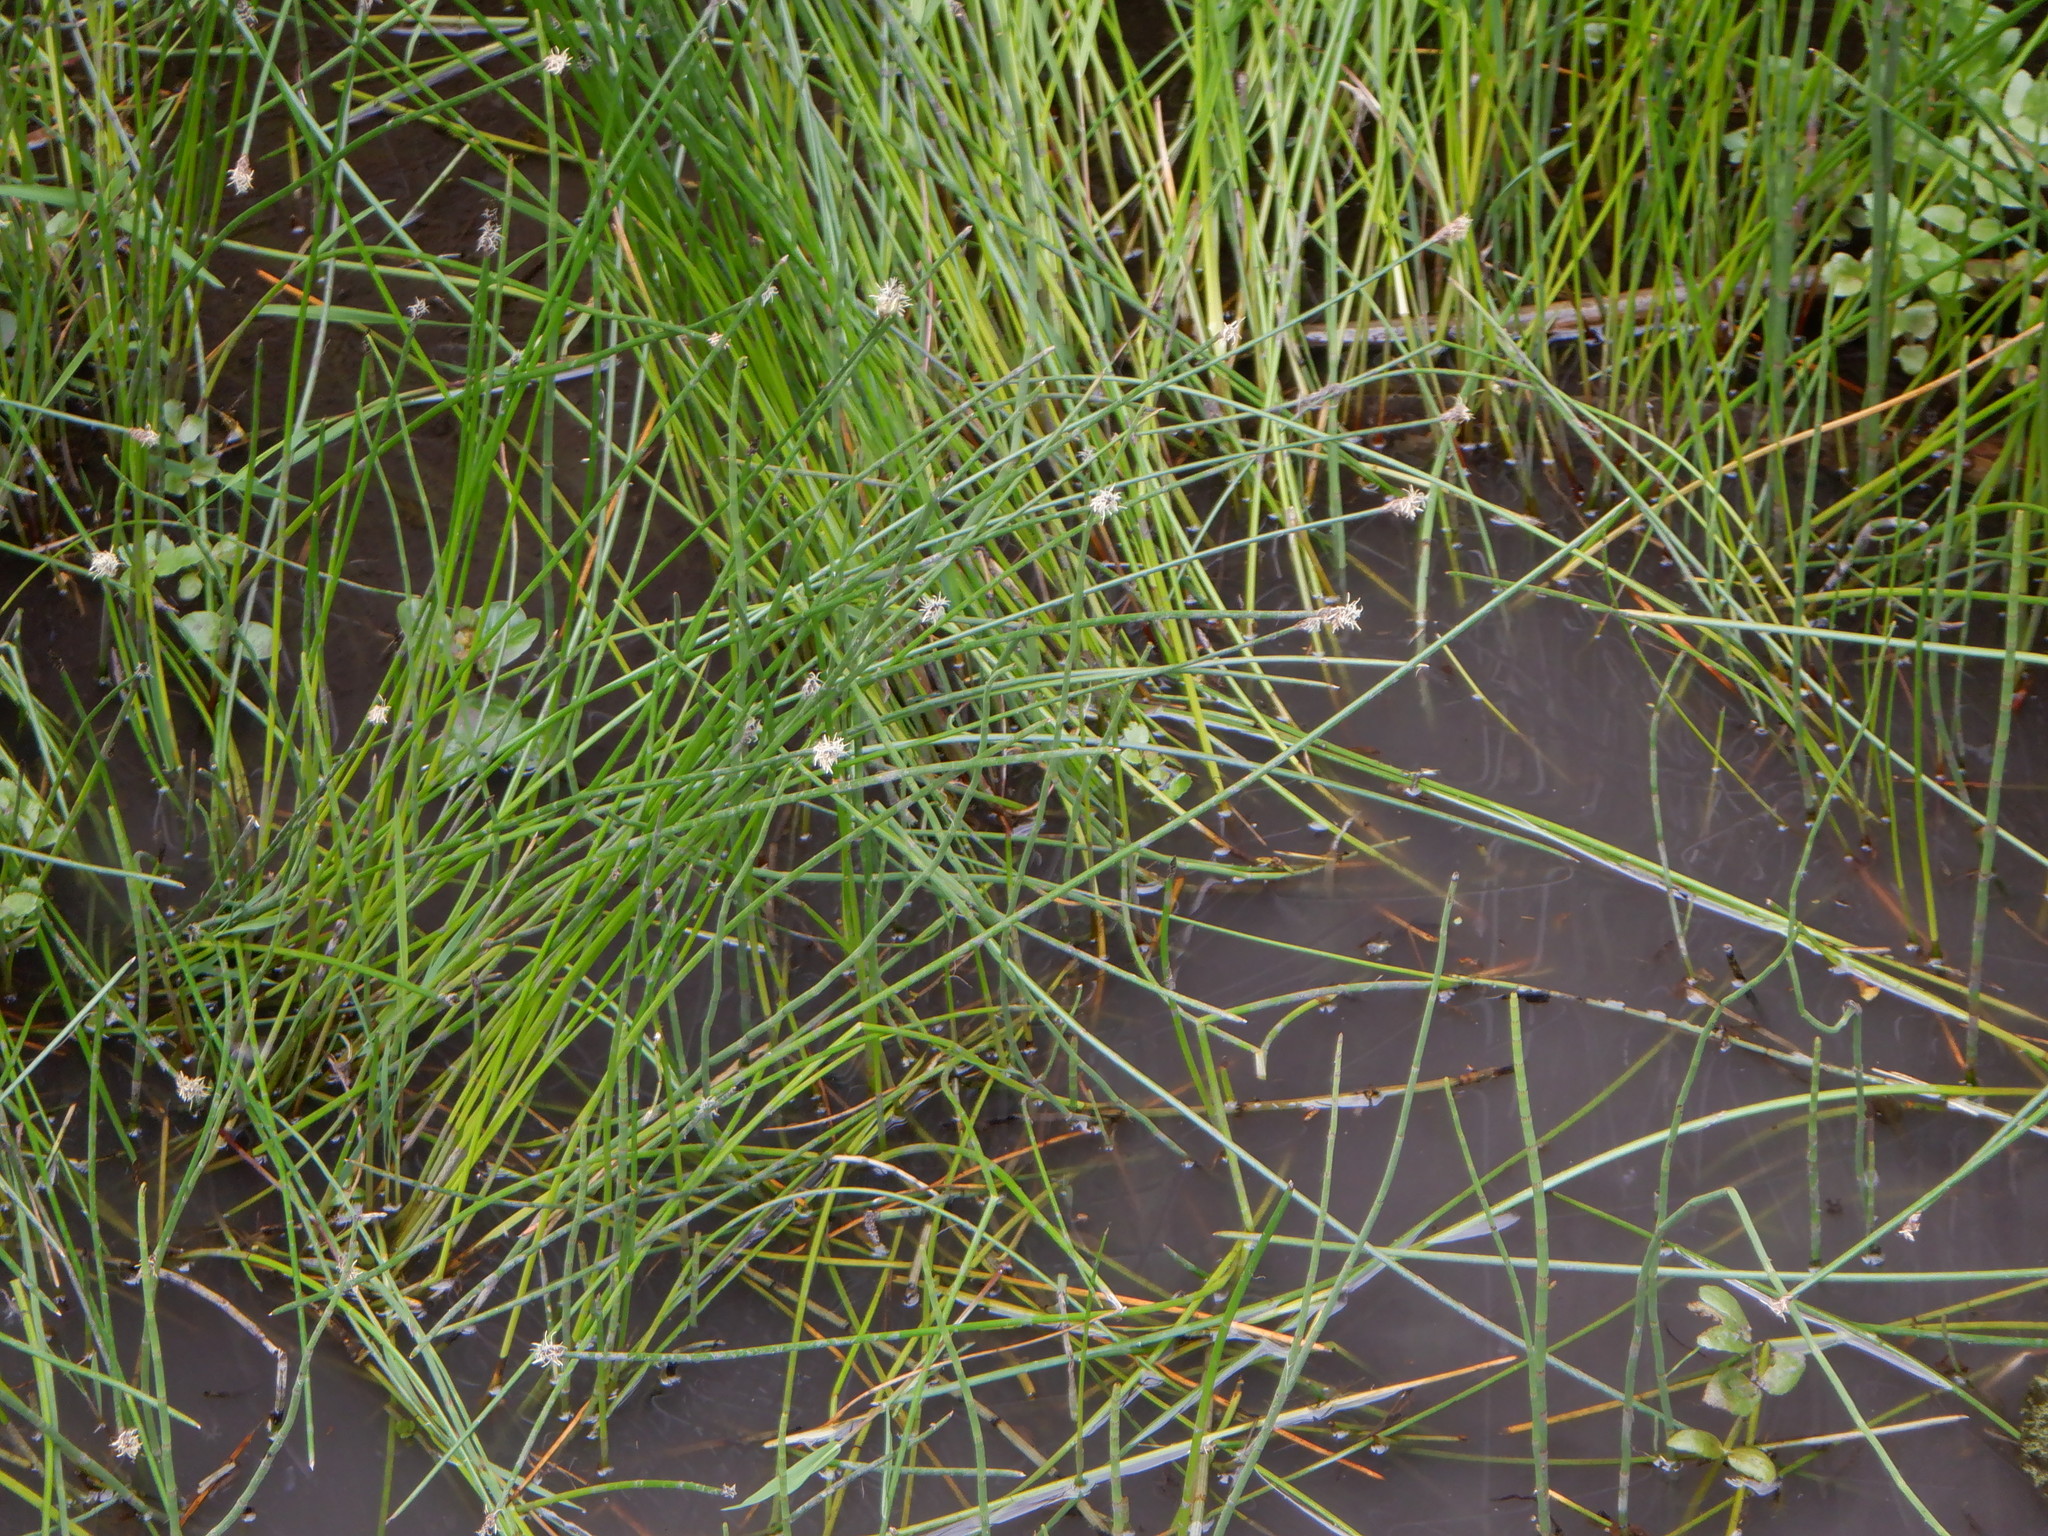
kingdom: Plantae
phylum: Tracheophyta
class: Liliopsida
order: Poales
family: Cyperaceae
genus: Eleocharis
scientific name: Eleocharis palustris
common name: Common spike-rush
